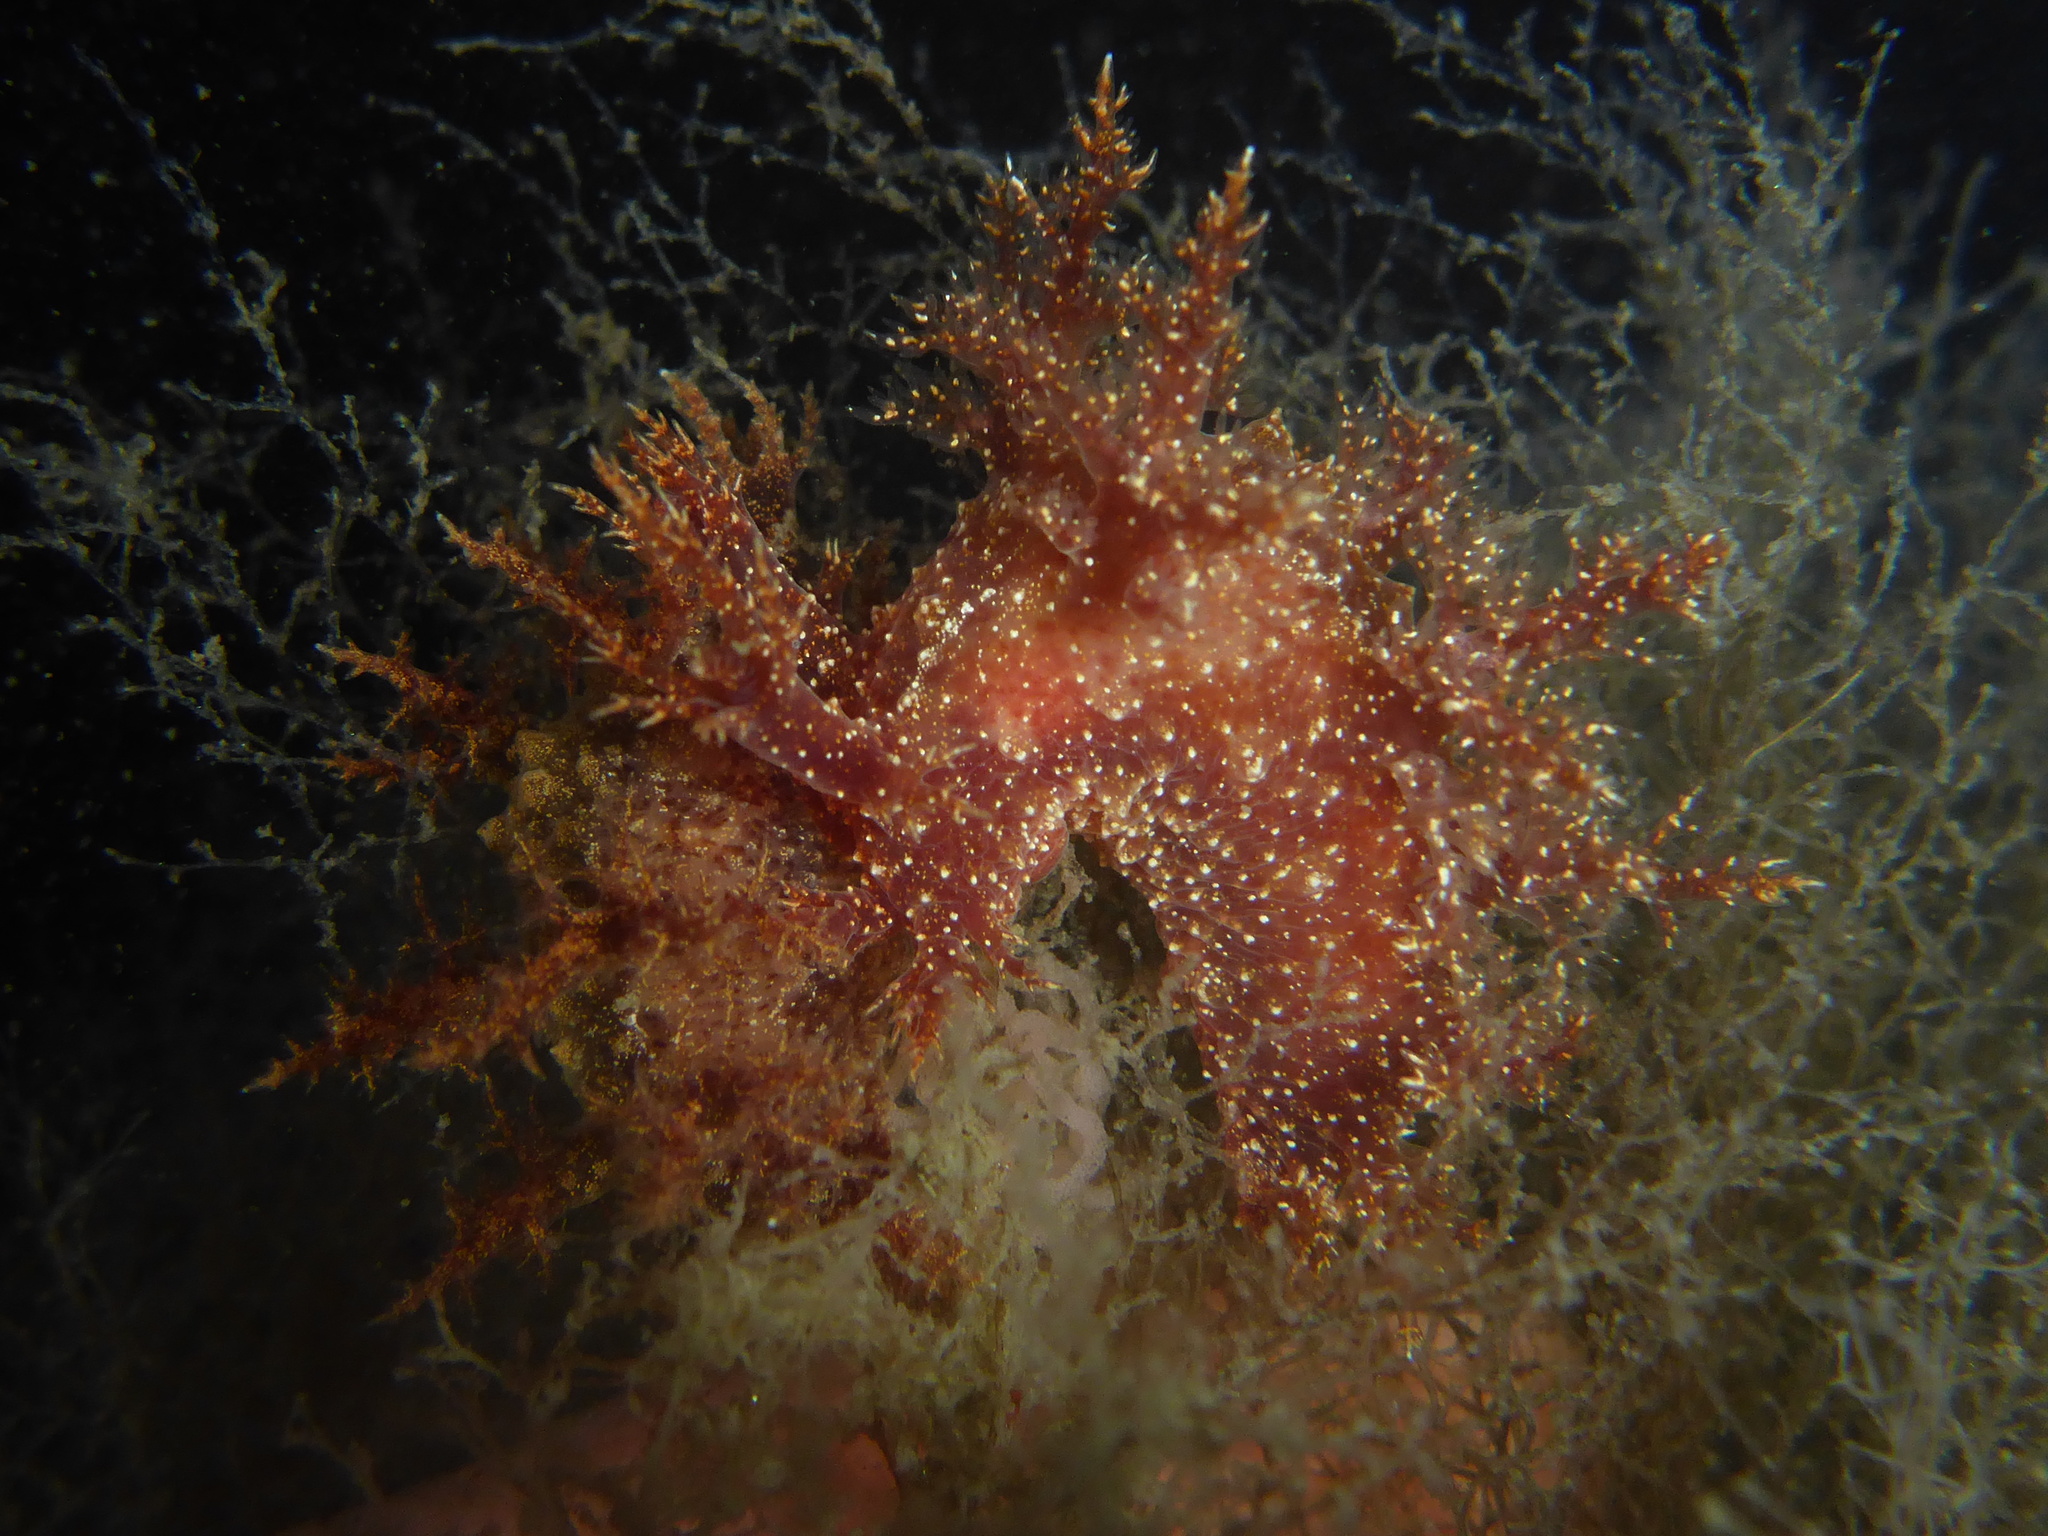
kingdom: Animalia
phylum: Mollusca
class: Gastropoda
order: Nudibranchia
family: Dendronotidae
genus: Dendronotus
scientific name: Dendronotus venustus
